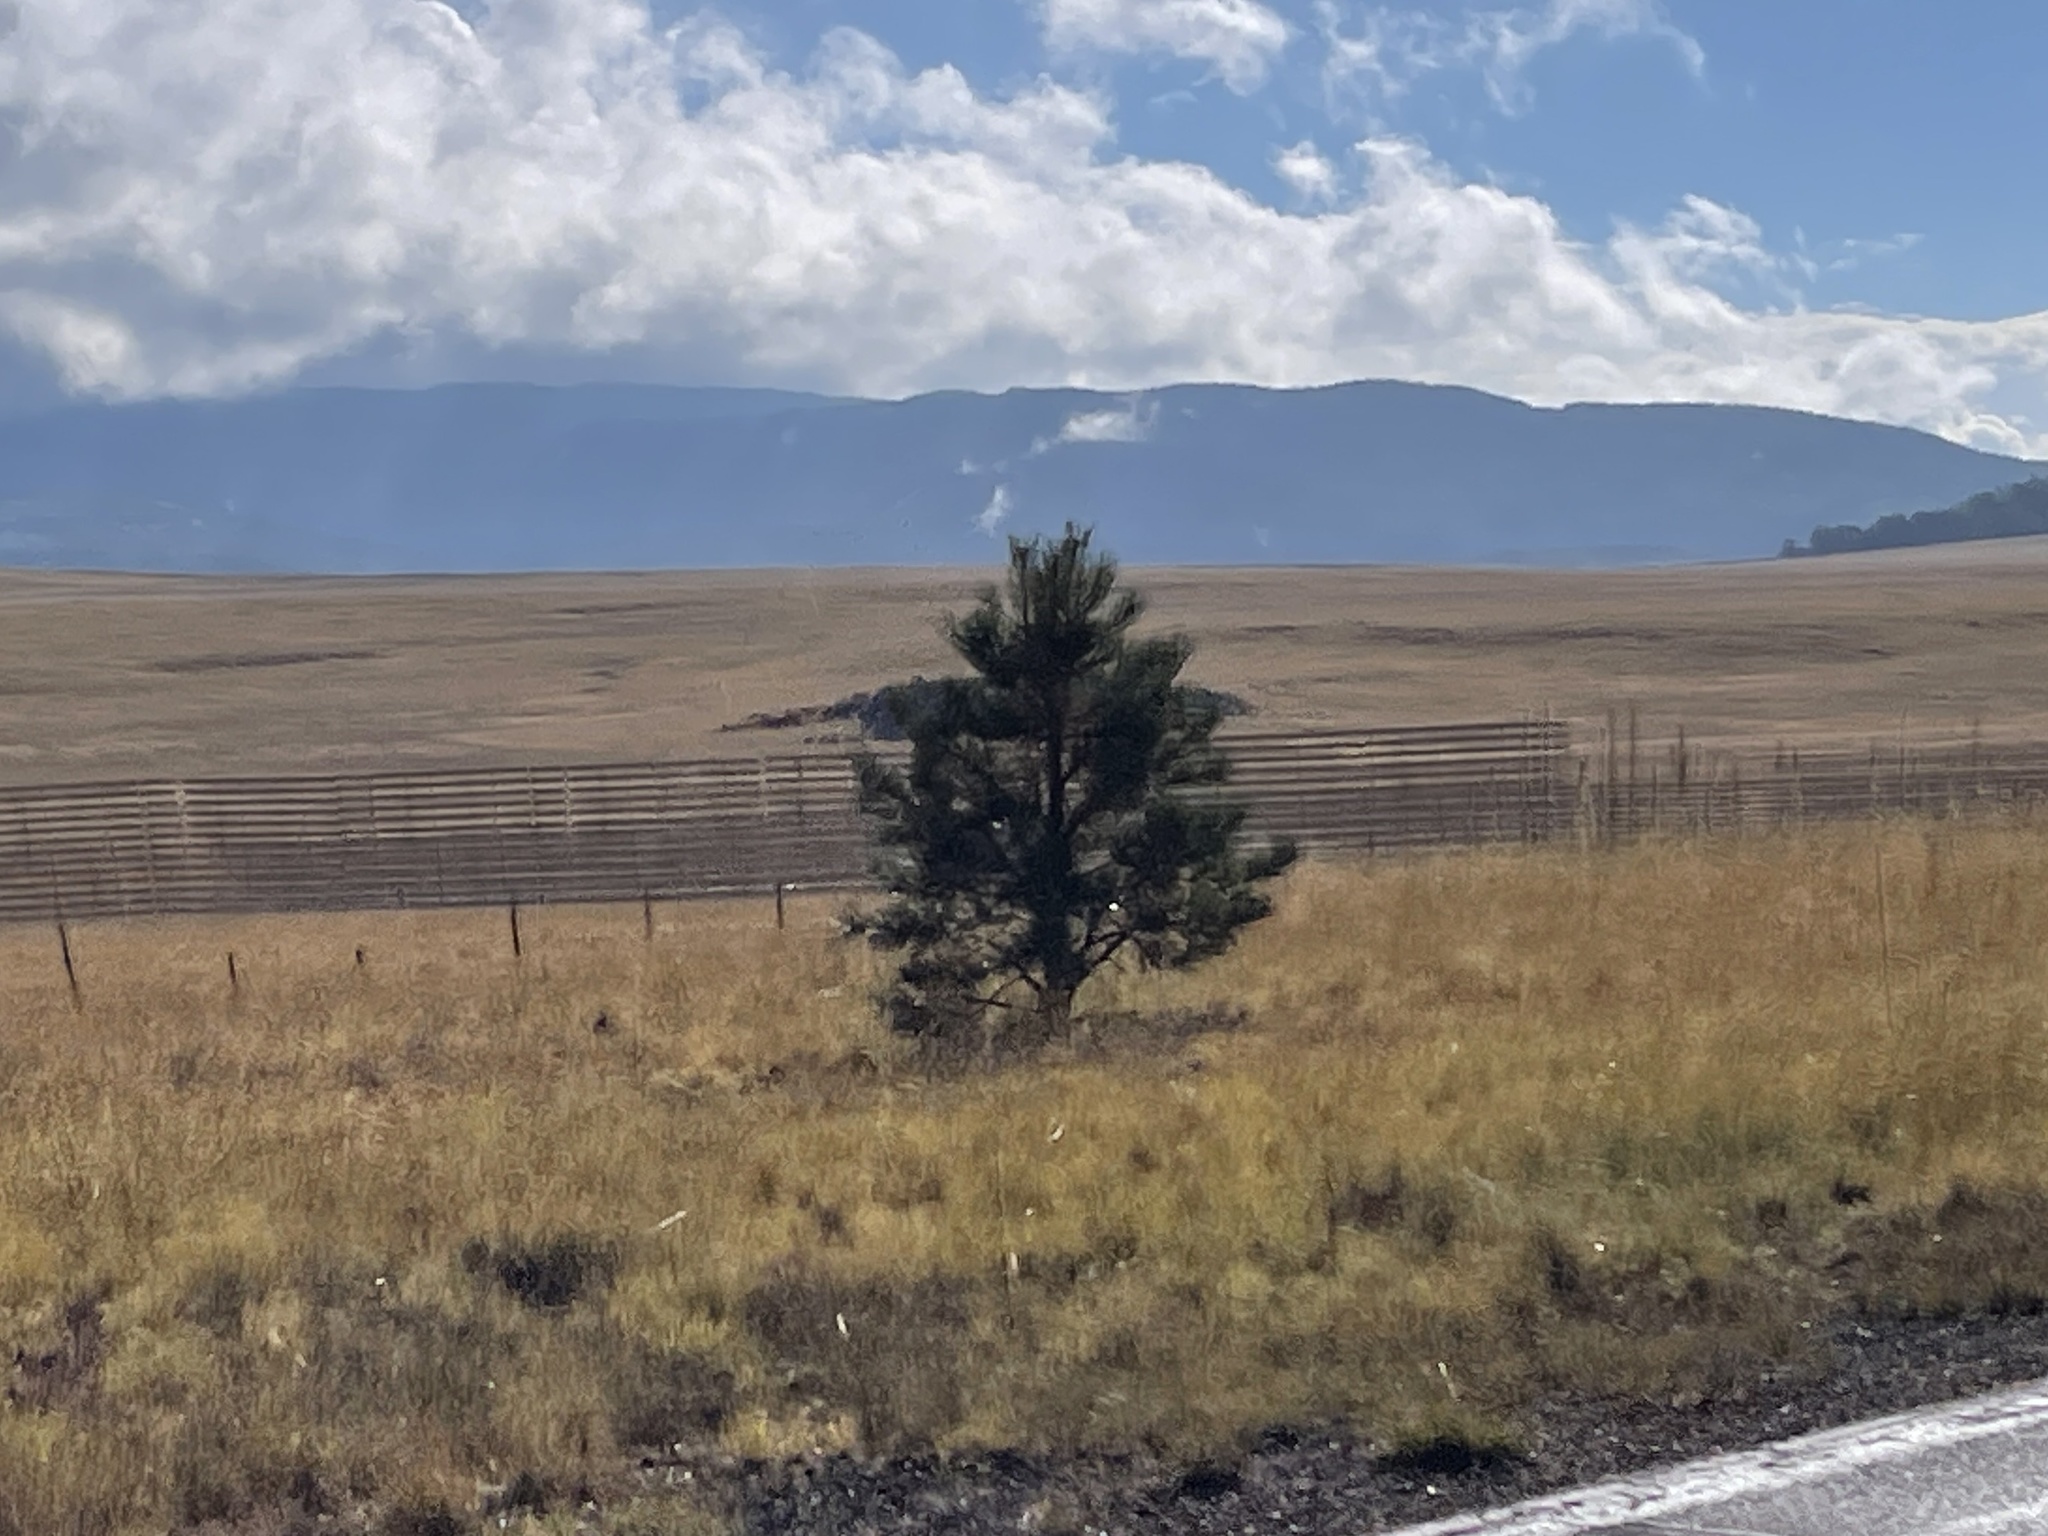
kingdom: Plantae
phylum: Tracheophyta
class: Pinopsida
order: Pinales
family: Pinaceae
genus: Pinus
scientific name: Pinus ponderosa
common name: Western yellow-pine
